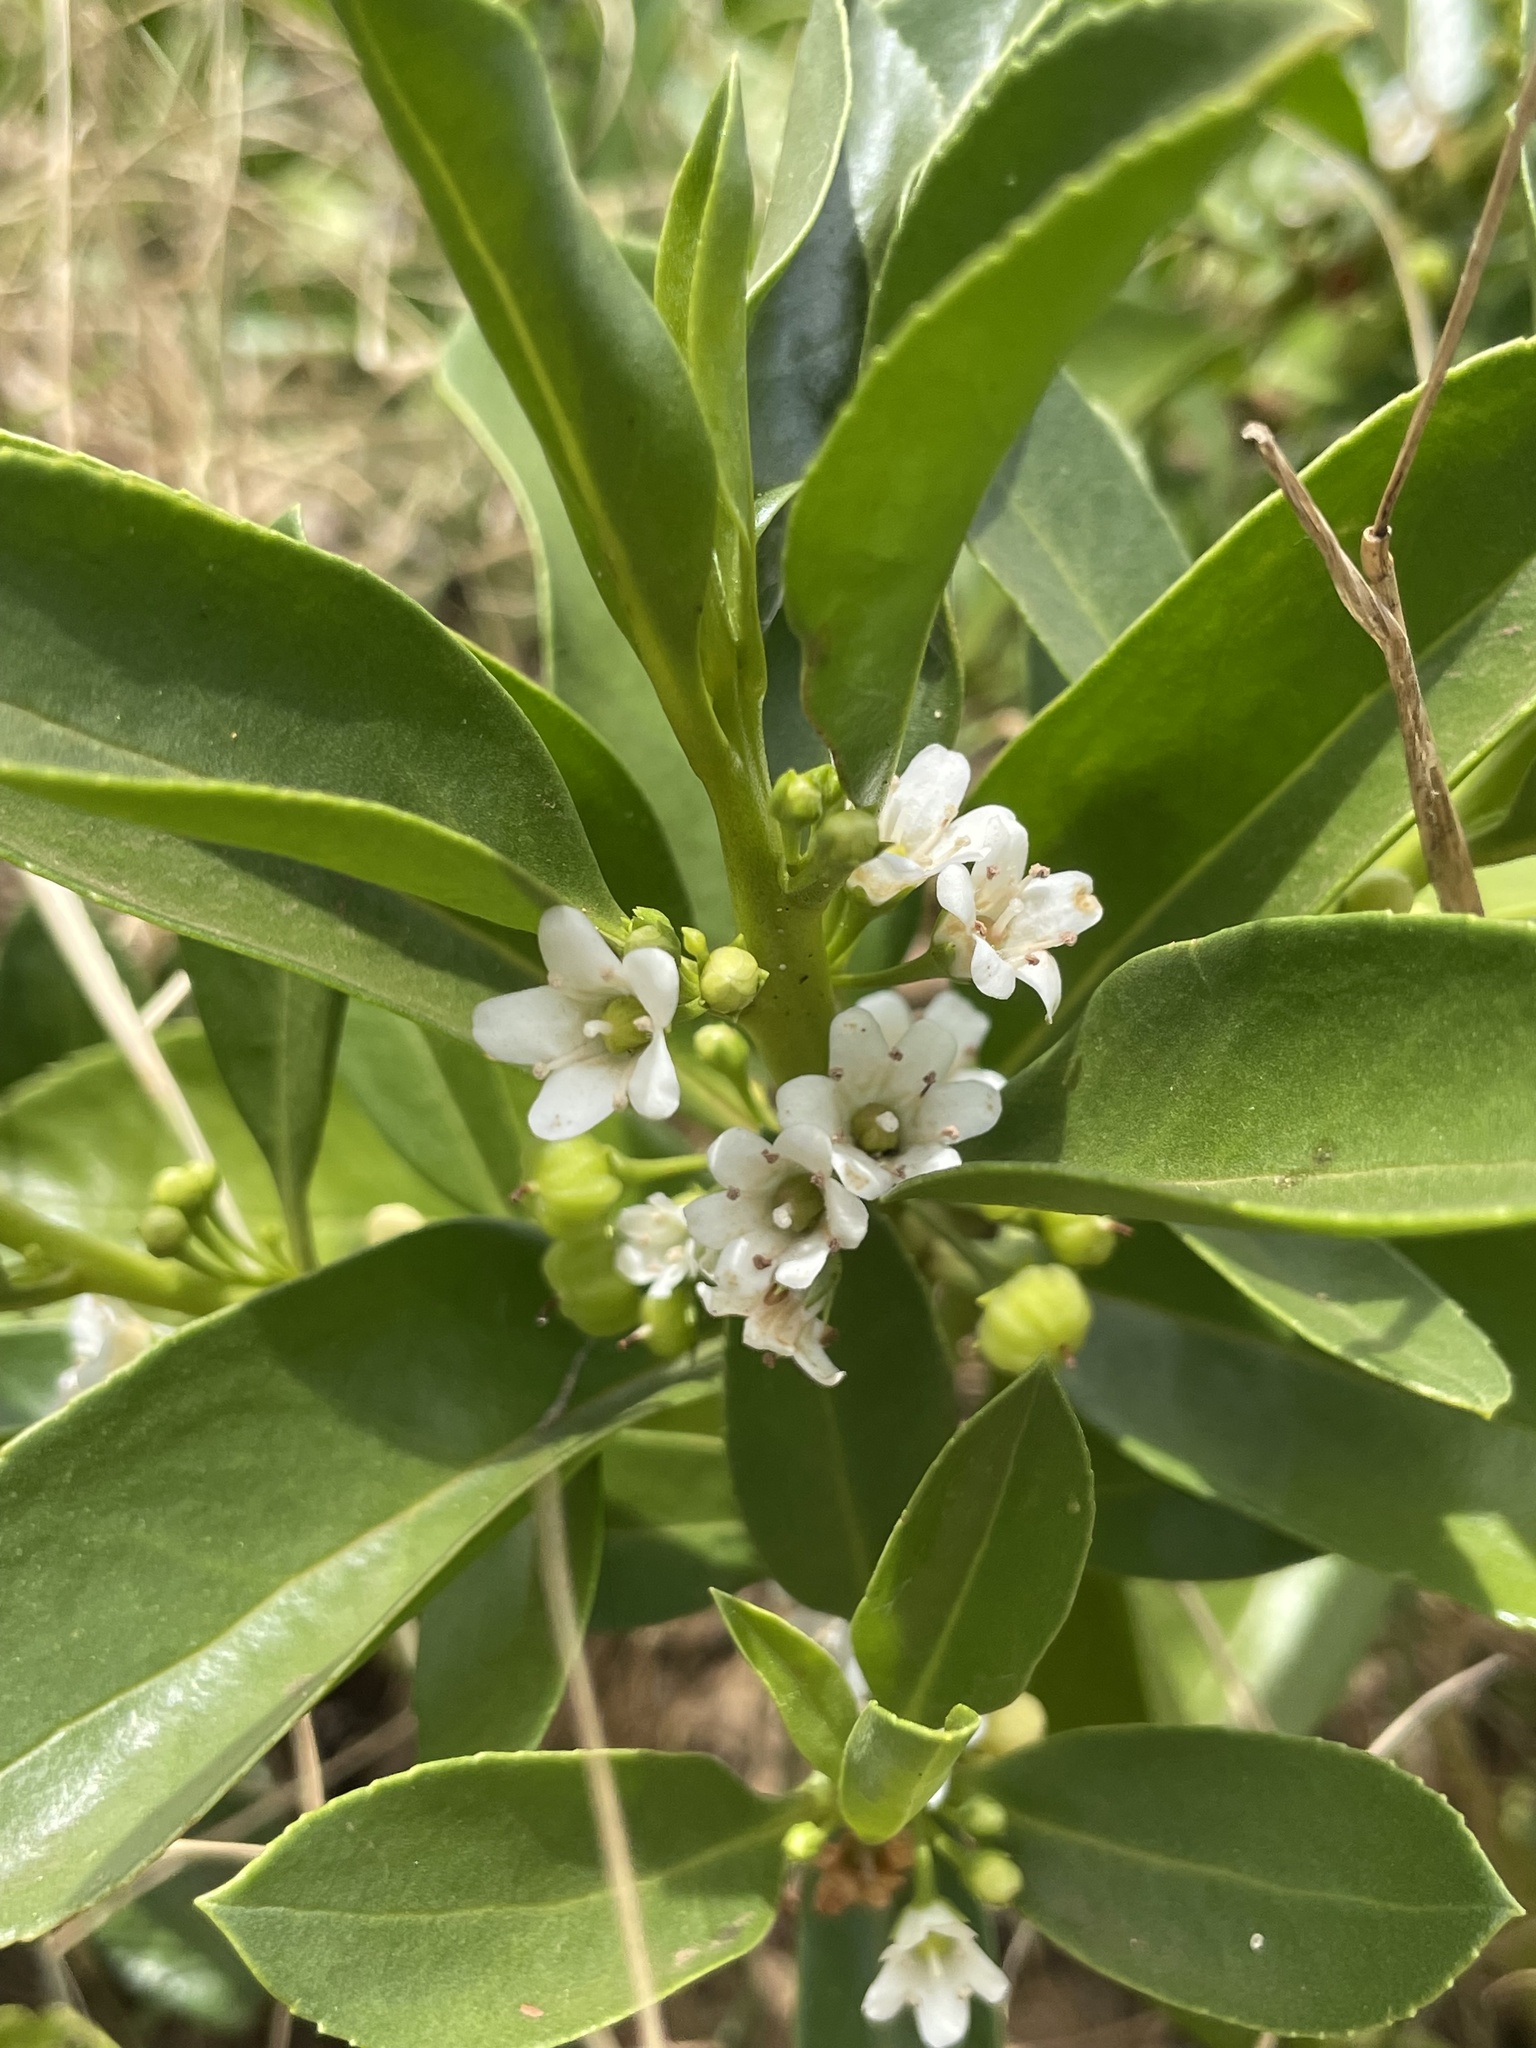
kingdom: Plantae
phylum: Tracheophyta
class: Magnoliopsida
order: Lamiales
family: Scrophulariaceae
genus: Myoporum
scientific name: Myoporum sandwicense
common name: Bastard-sandalwood
